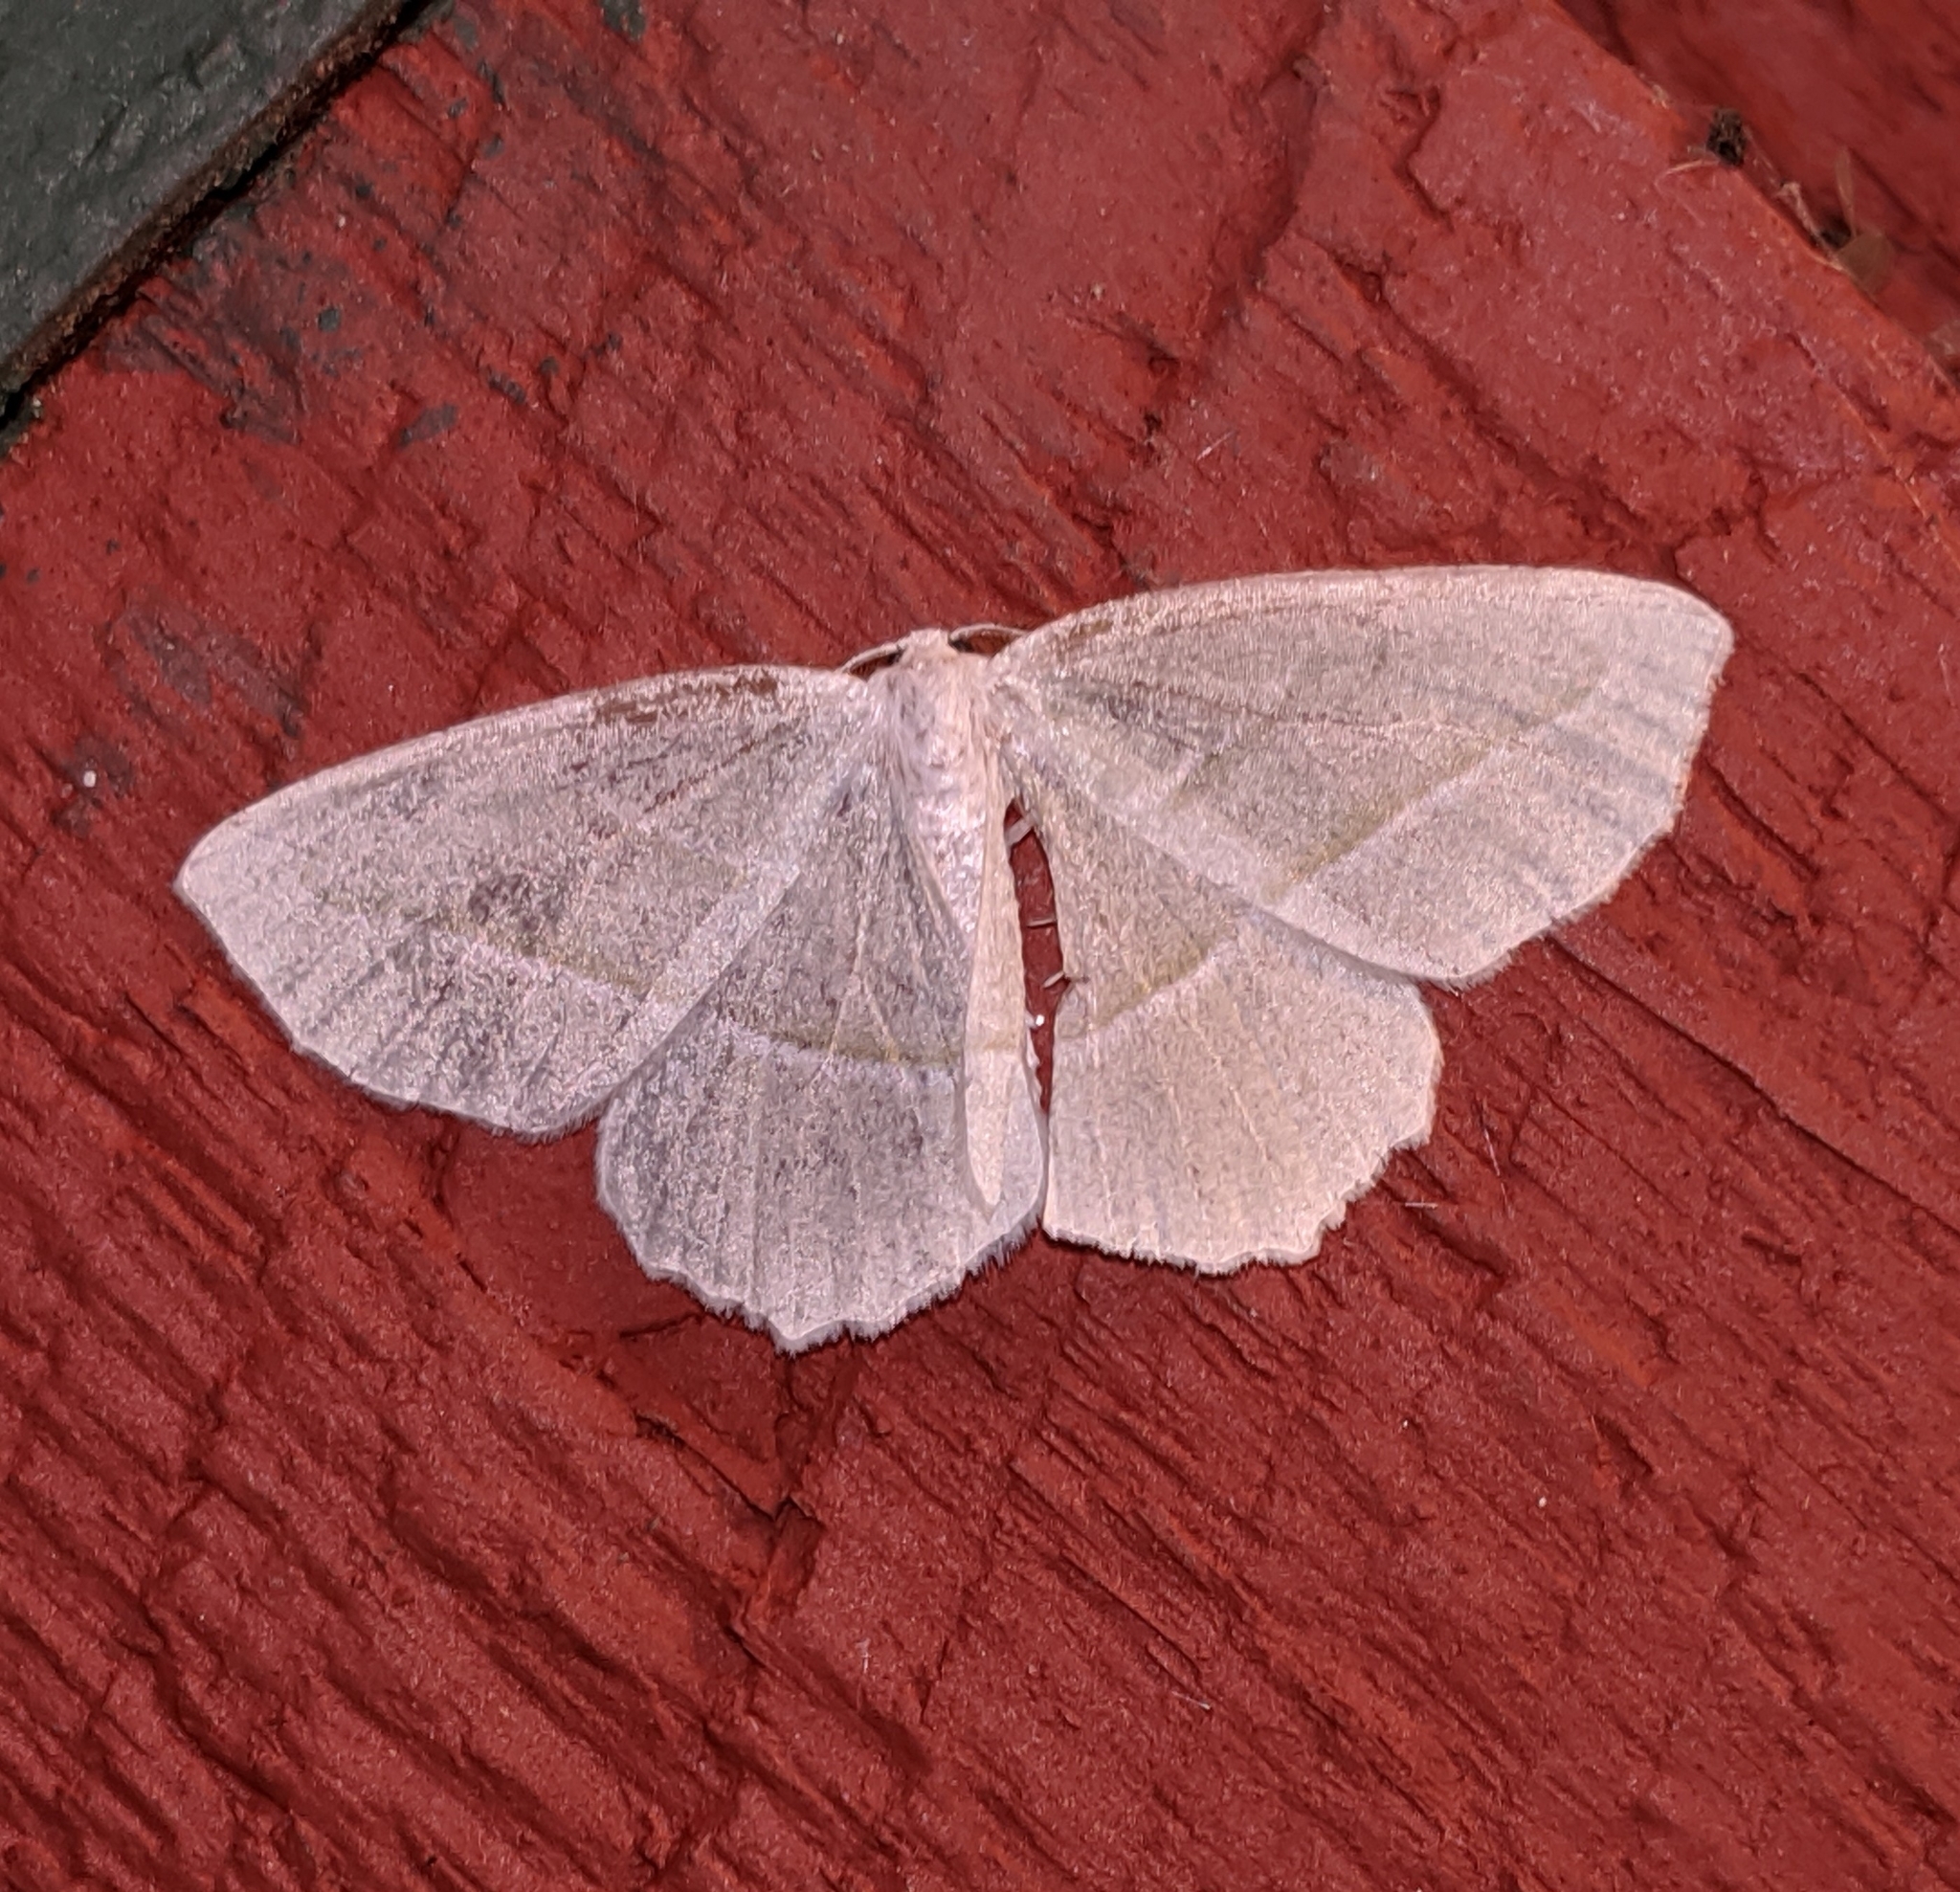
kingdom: Animalia
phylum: Arthropoda
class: Insecta
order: Lepidoptera
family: Geometridae
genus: Campaea
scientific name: Campaea perlata
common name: Fringed looper
